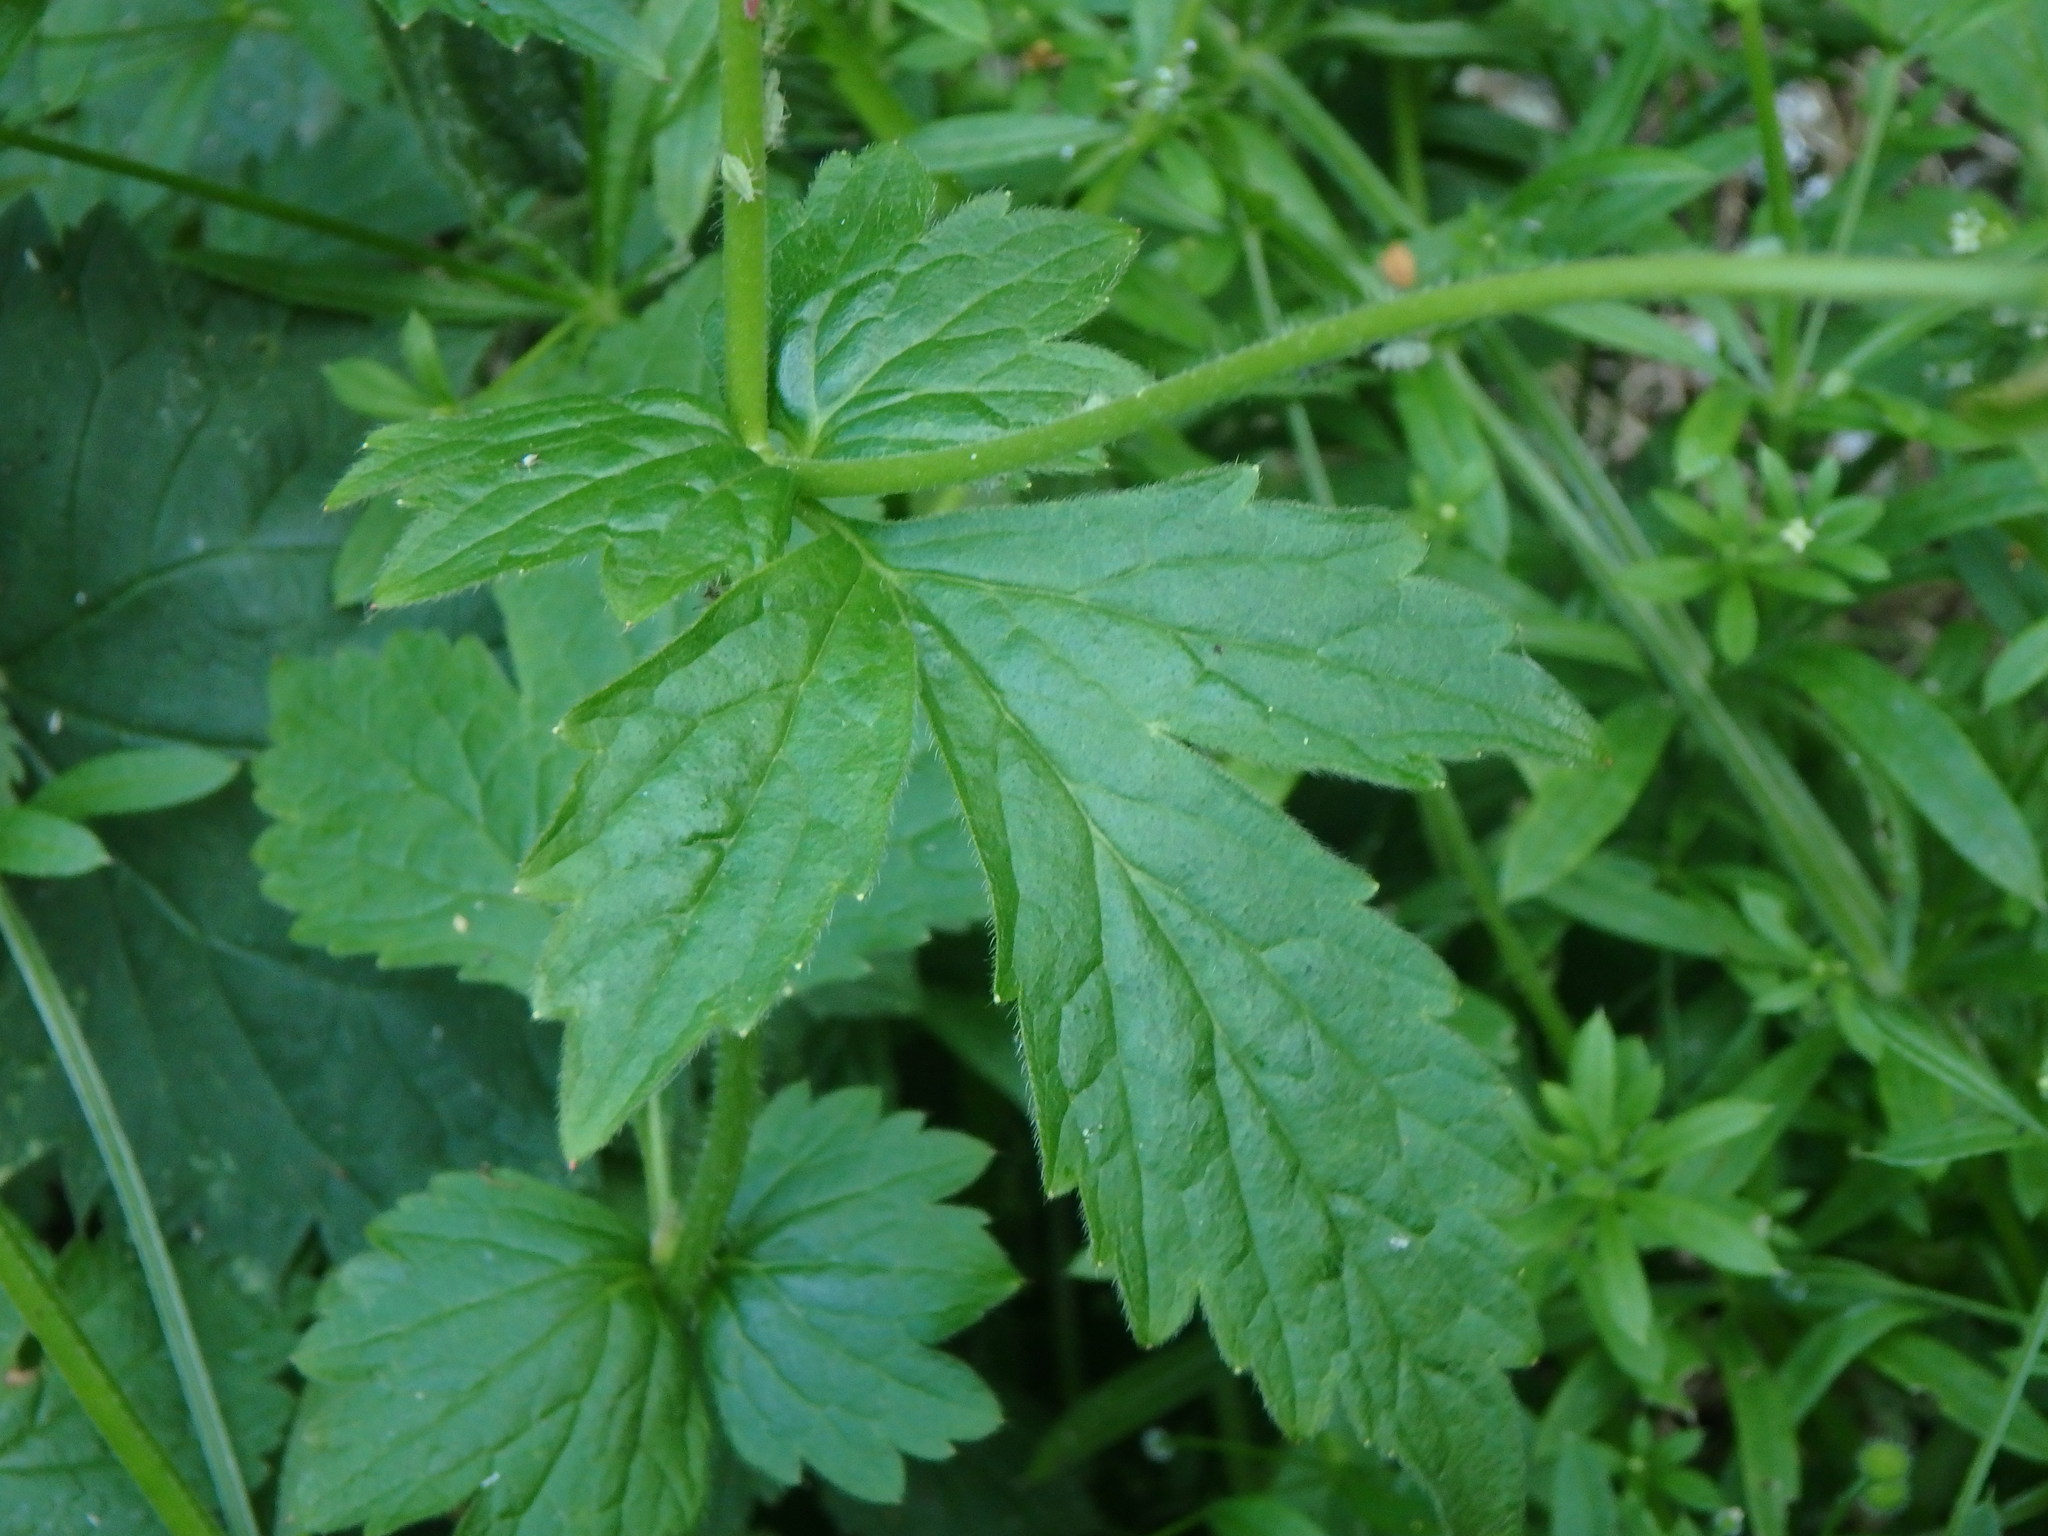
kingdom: Plantae
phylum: Tracheophyta
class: Magnoliopsida
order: Rosales
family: Rosaceae
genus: Geum
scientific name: Geum urbanum
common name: Wood avens
